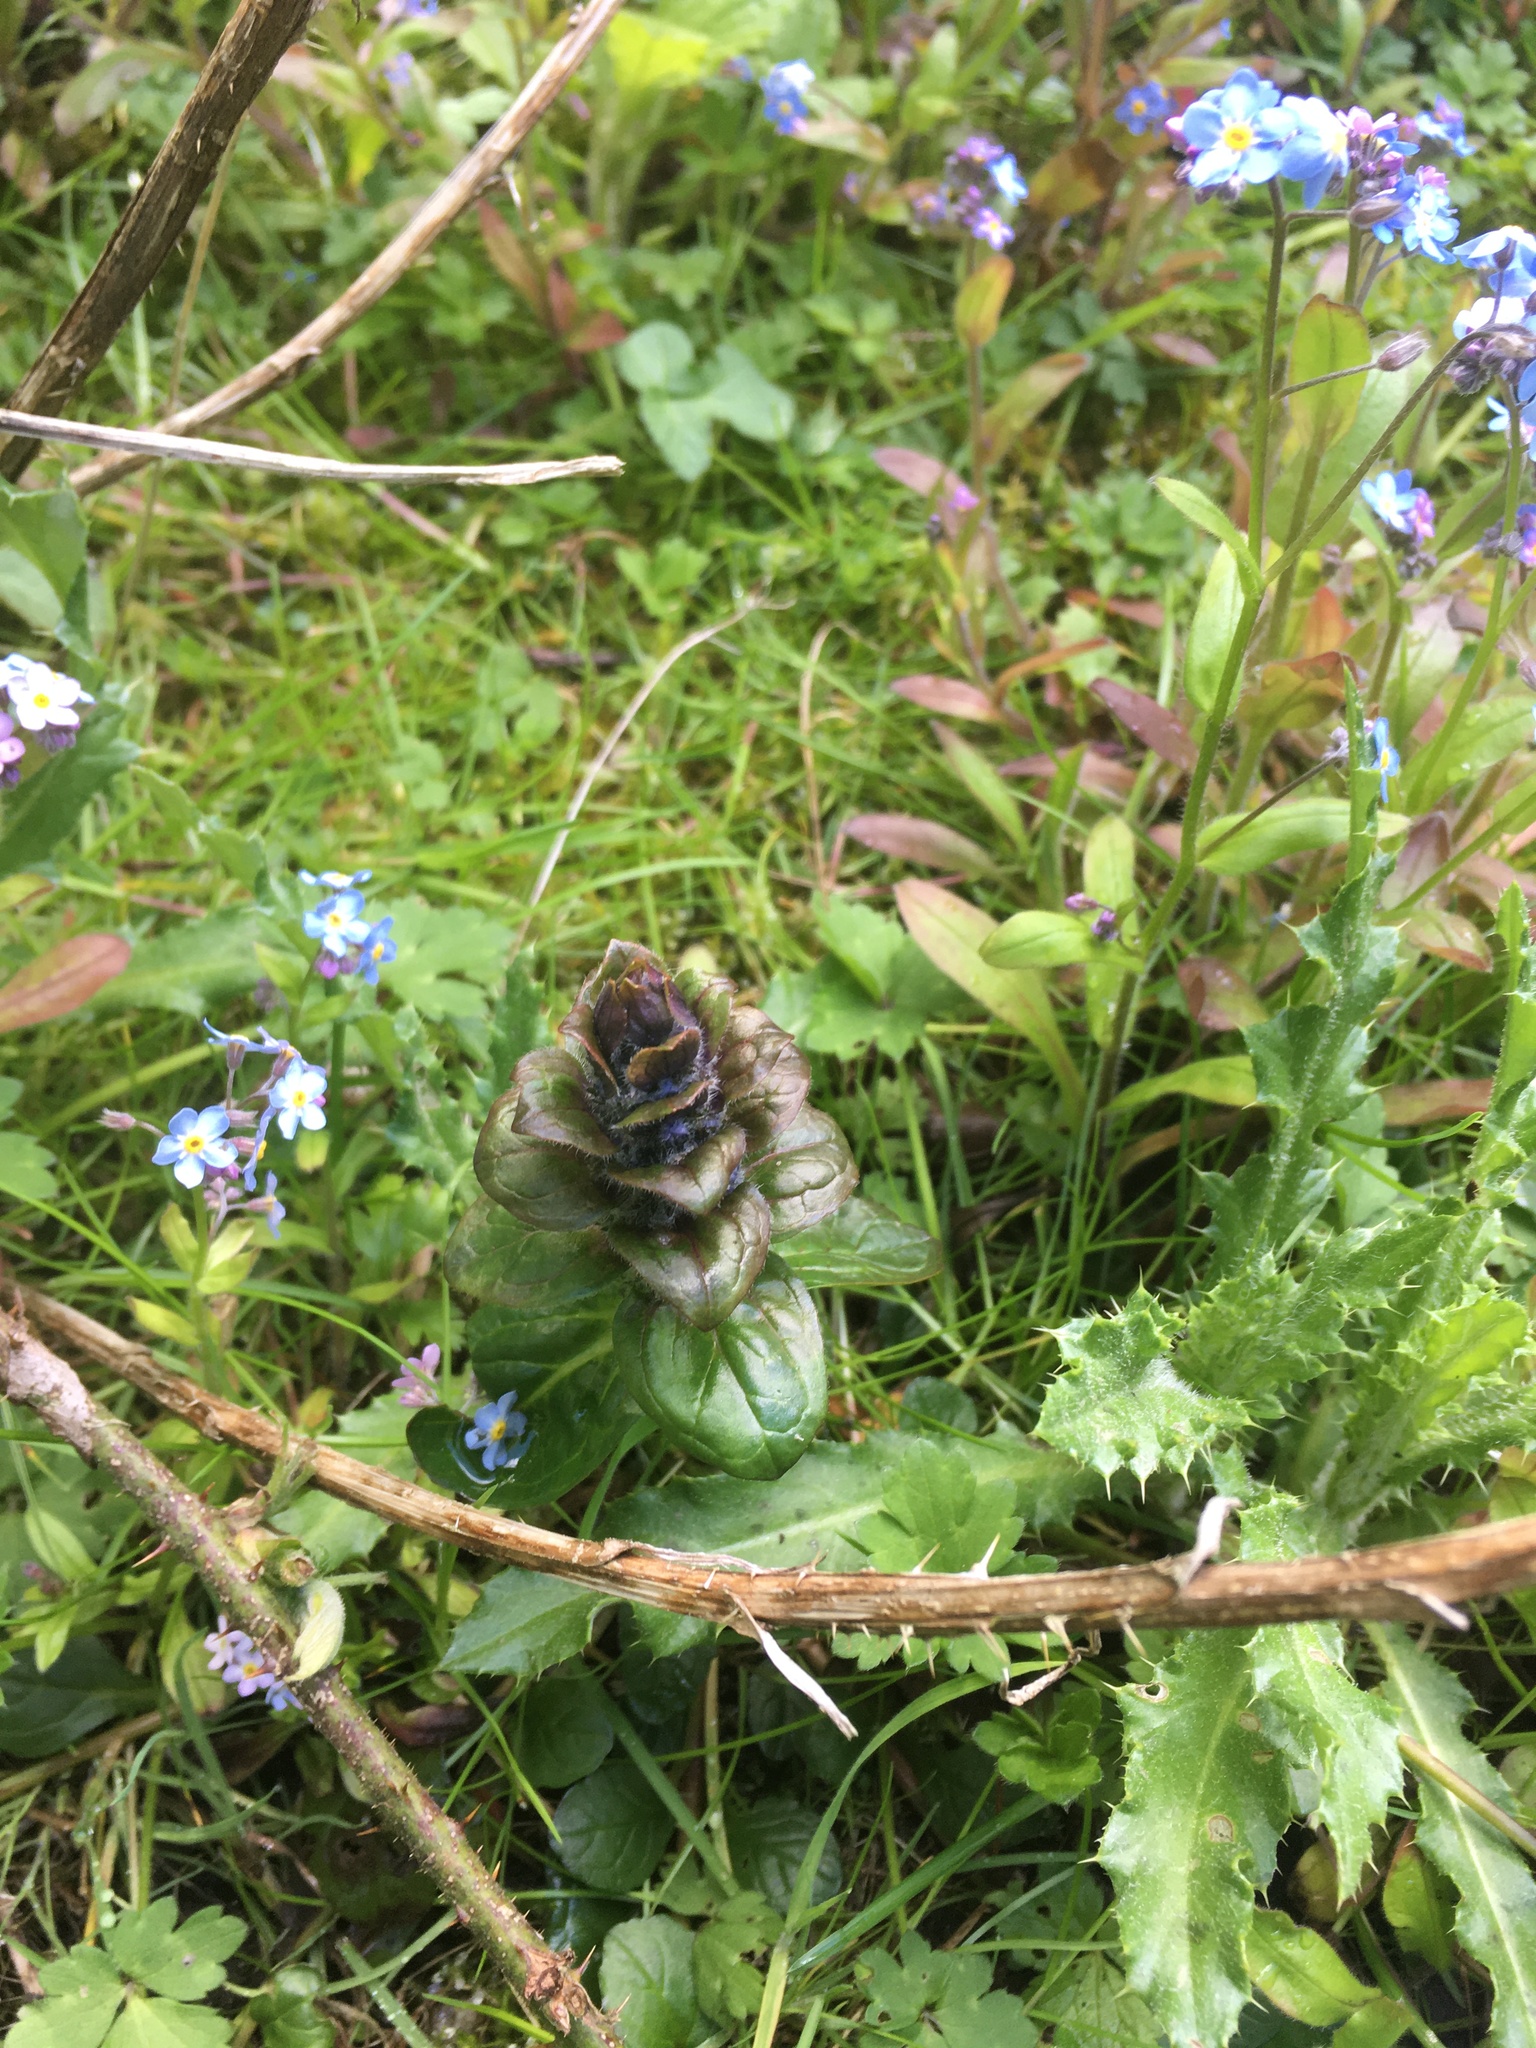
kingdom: Plantae
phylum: Tracheophyta
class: Magnoliopsida
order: Lamiales
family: Lamiaceae
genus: Ajuga
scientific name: Ajuga reptans
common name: Bugle
